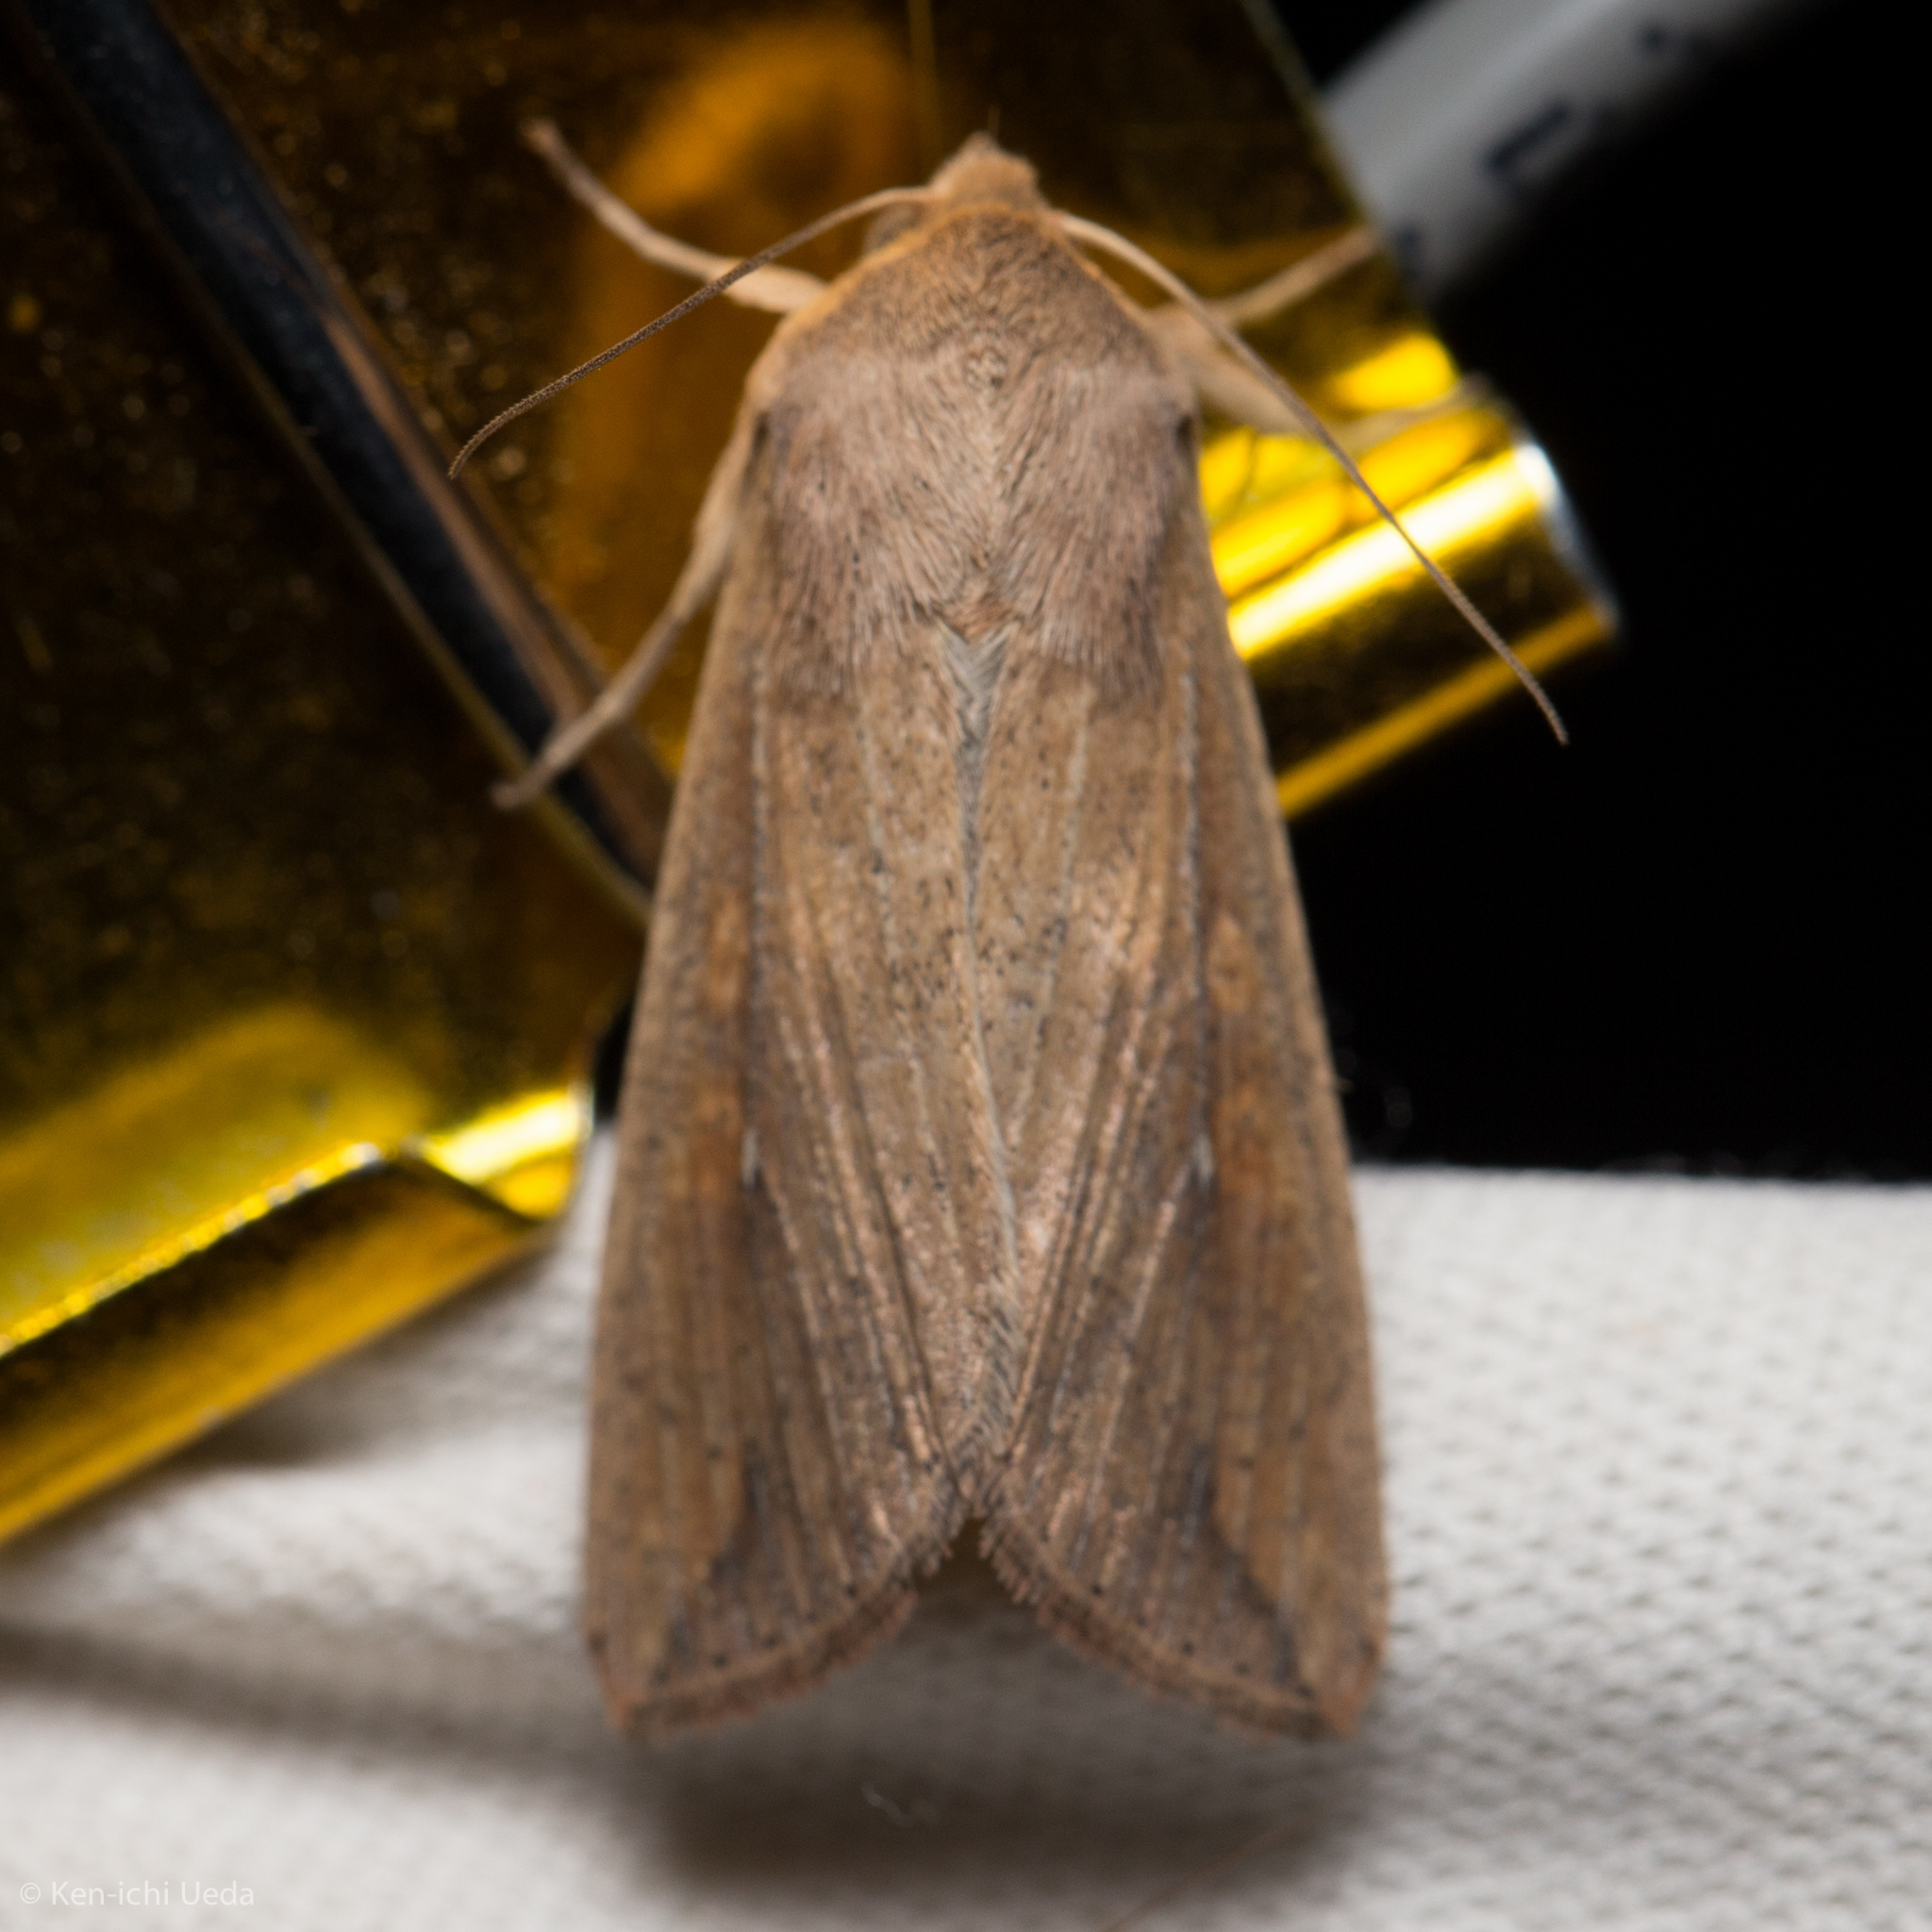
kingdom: Animalia
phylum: Arthropoda
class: Insecta
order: Lepidoptera
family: Noctuidae
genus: Mythimna
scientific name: Mythimna unipuncta
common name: White-speck
